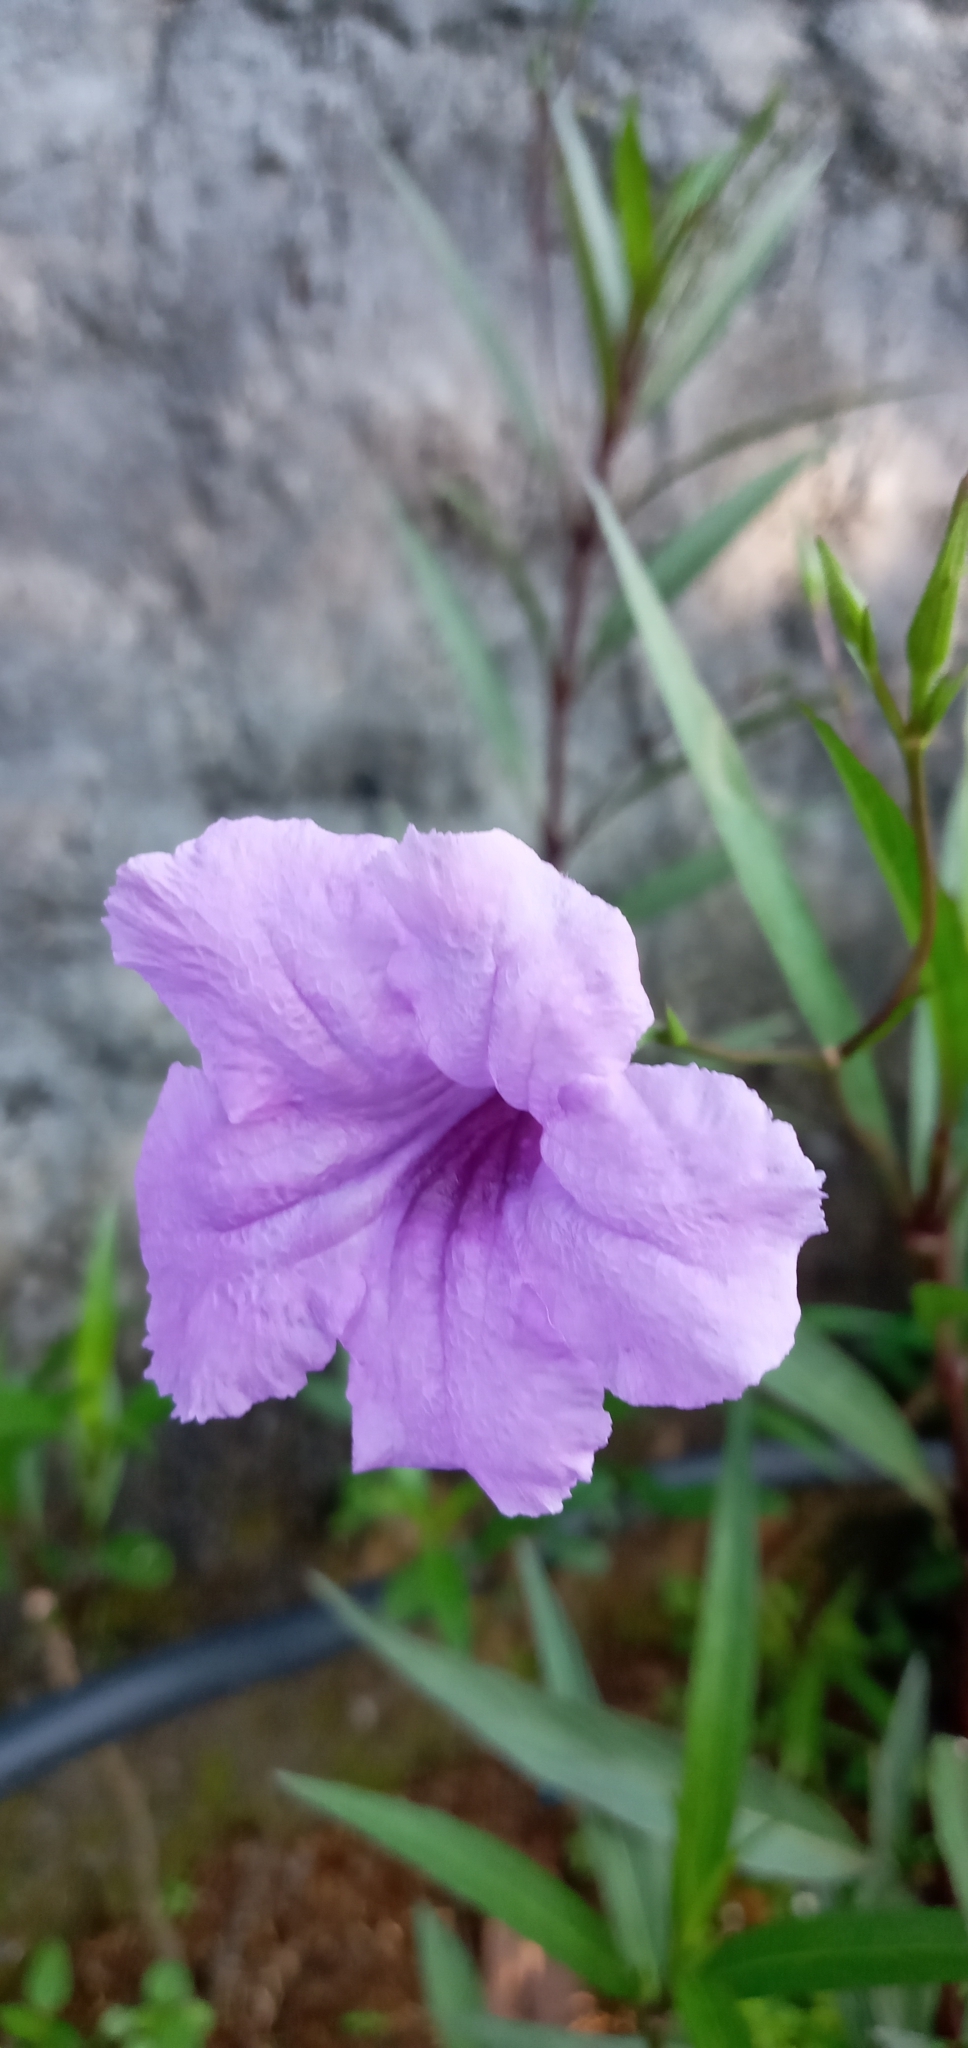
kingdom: Plantae
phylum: Tracheophyta
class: Magnoliopsida
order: Lamiales
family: Acanthaceae
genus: Ruellia
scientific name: Ruellia simplex
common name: Softseed wild petunia
